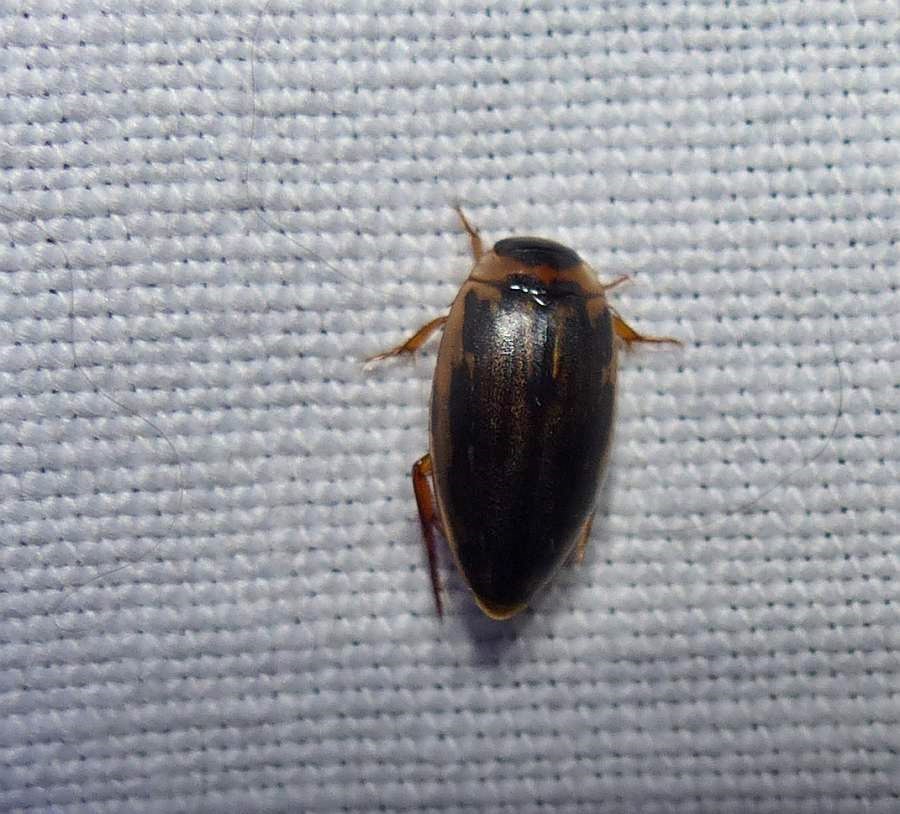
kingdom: Animalia
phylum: Arthropoda
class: Insecta
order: Coleoptera
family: Dytiscidae
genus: Coptotomus
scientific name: Coptotomus longulus
